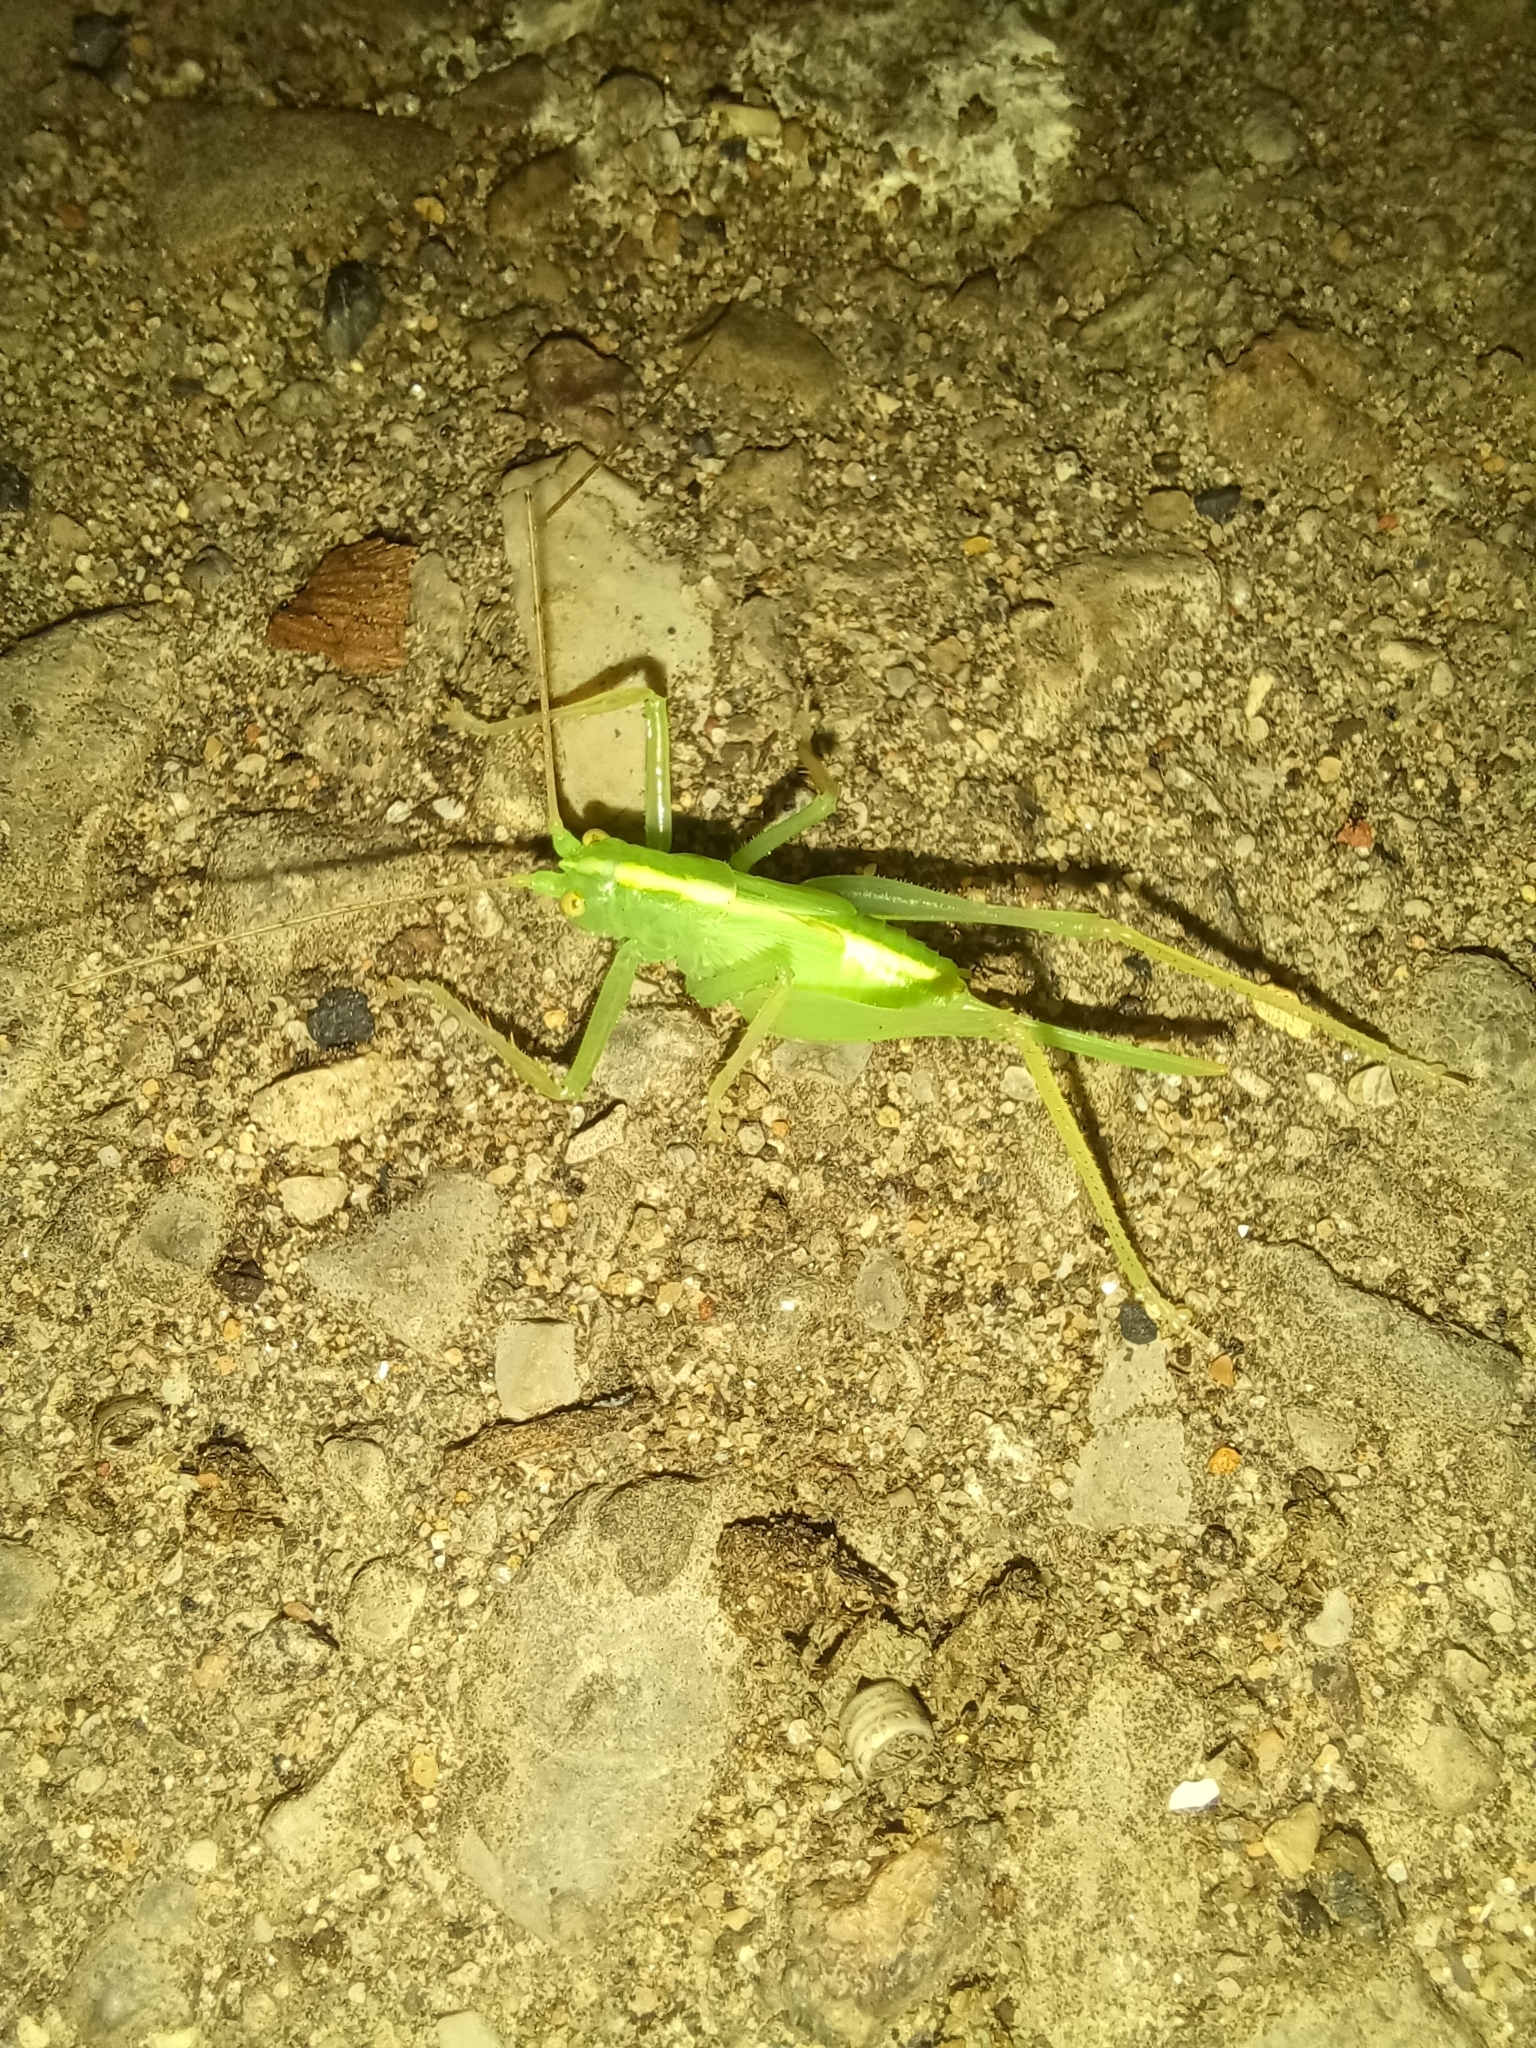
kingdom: Animalia
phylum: Arthropoda
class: Insecta
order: Orthoptera
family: Tettigoniidae
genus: Meconema
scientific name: Meconema thalassinum
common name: Oak bush-cricket
